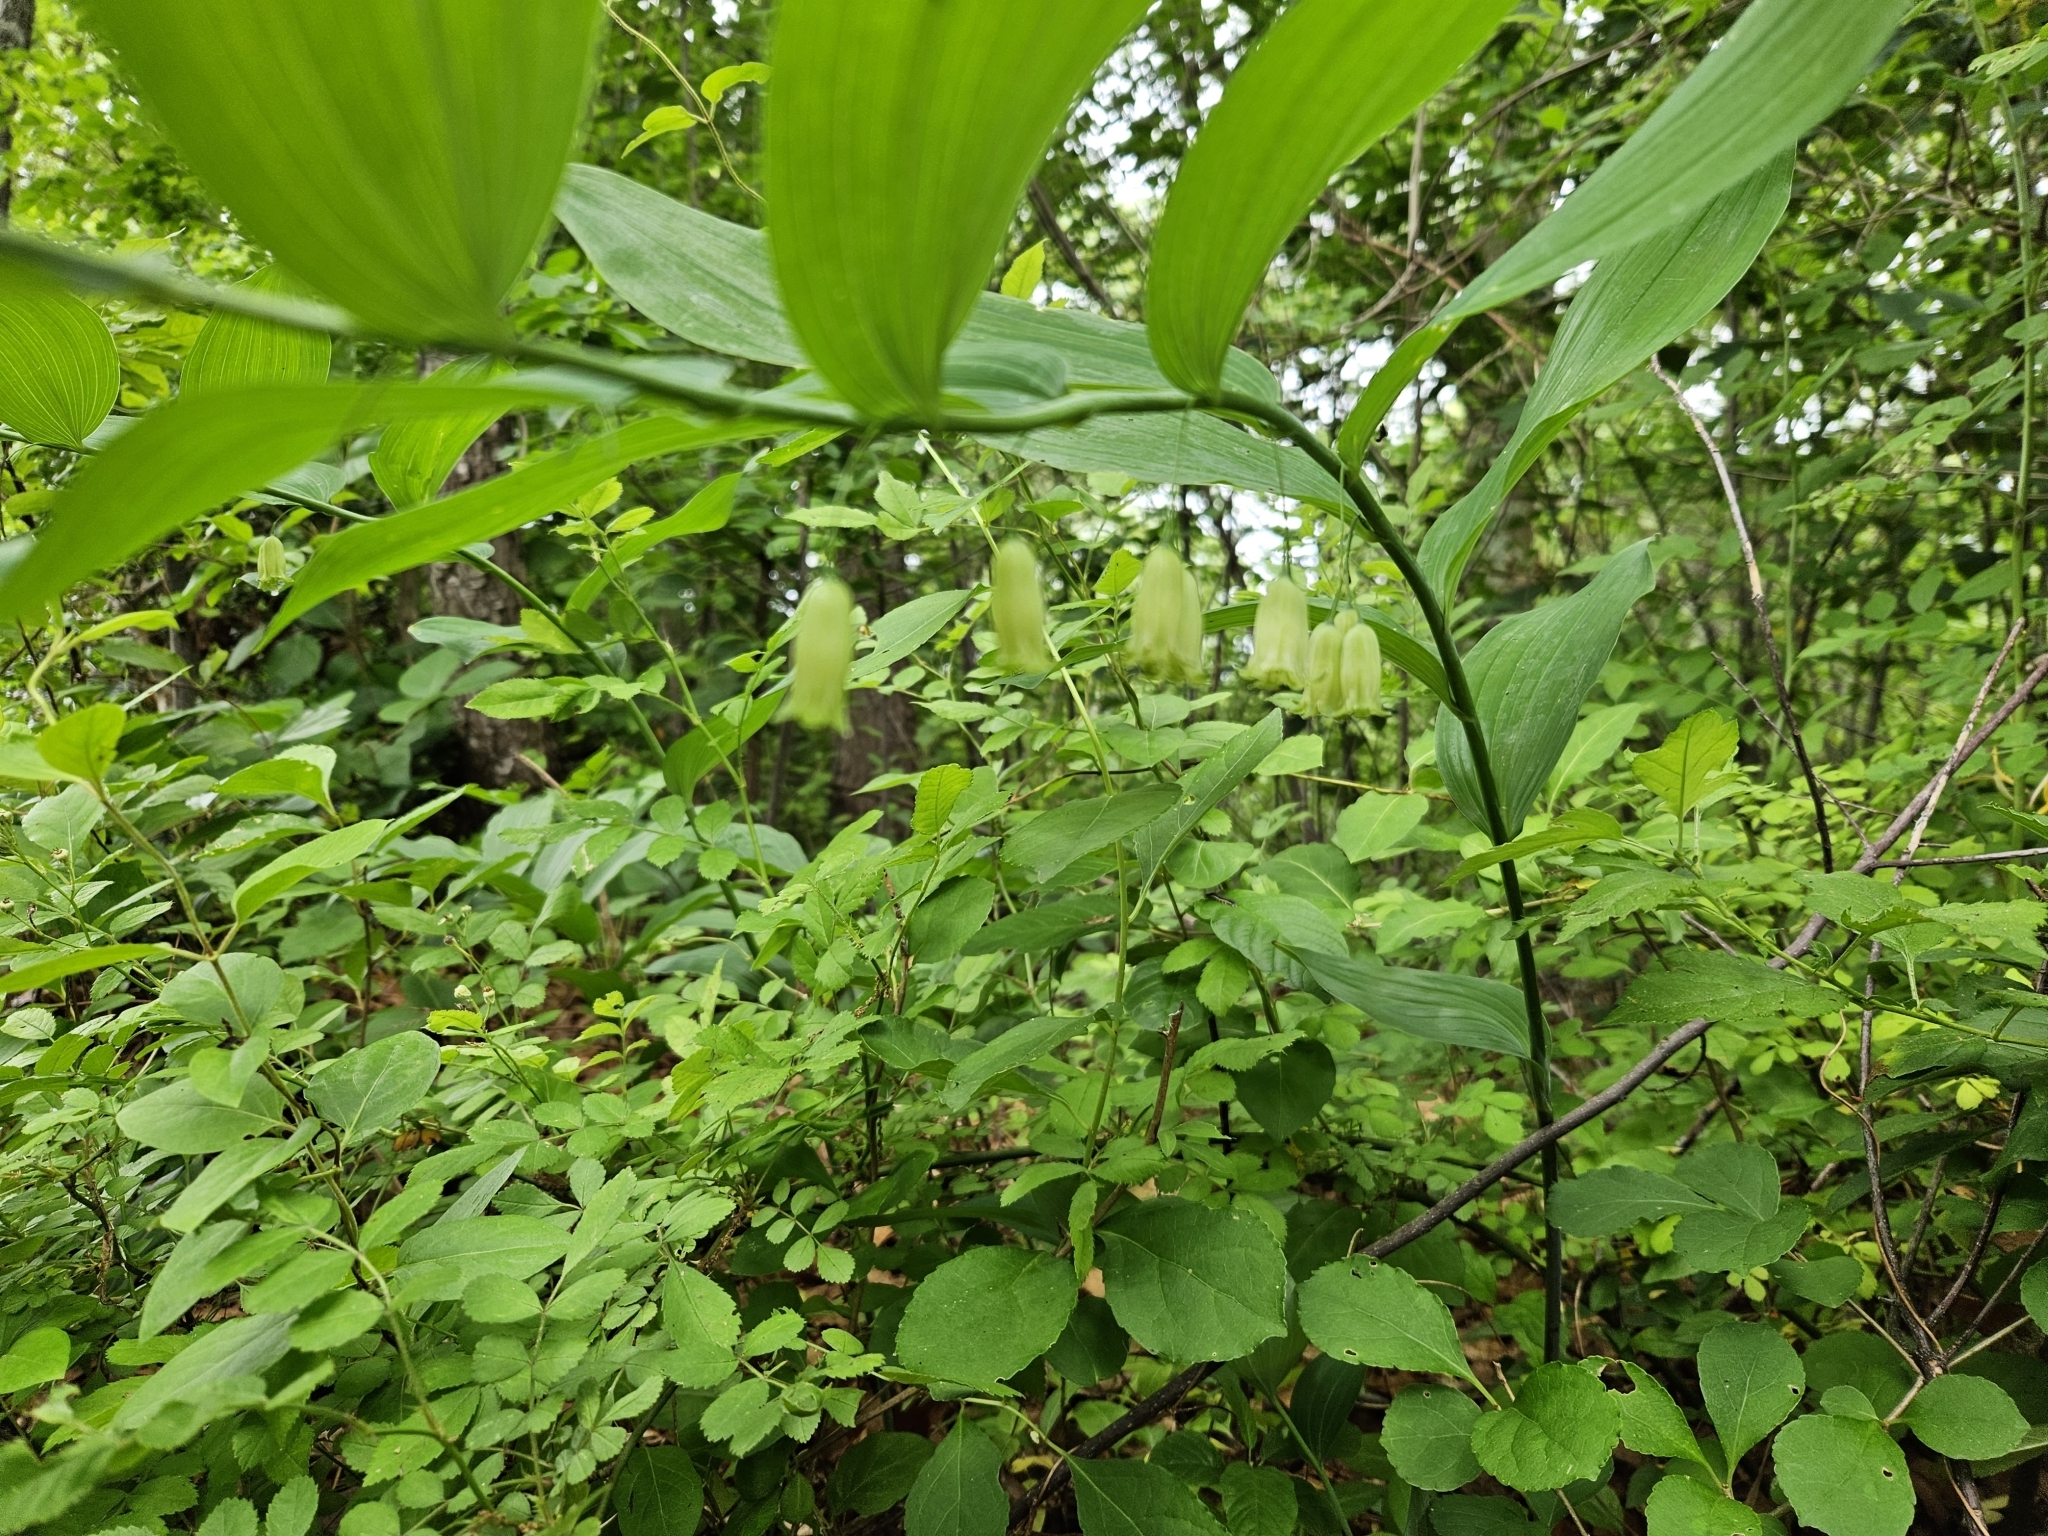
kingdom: Plantae
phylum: Tracheophyta
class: Liliopsida
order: Asparagales
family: Asparagaceae
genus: Polygonatum
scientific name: Polygonatum biflorum
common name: American solomon's-seal
